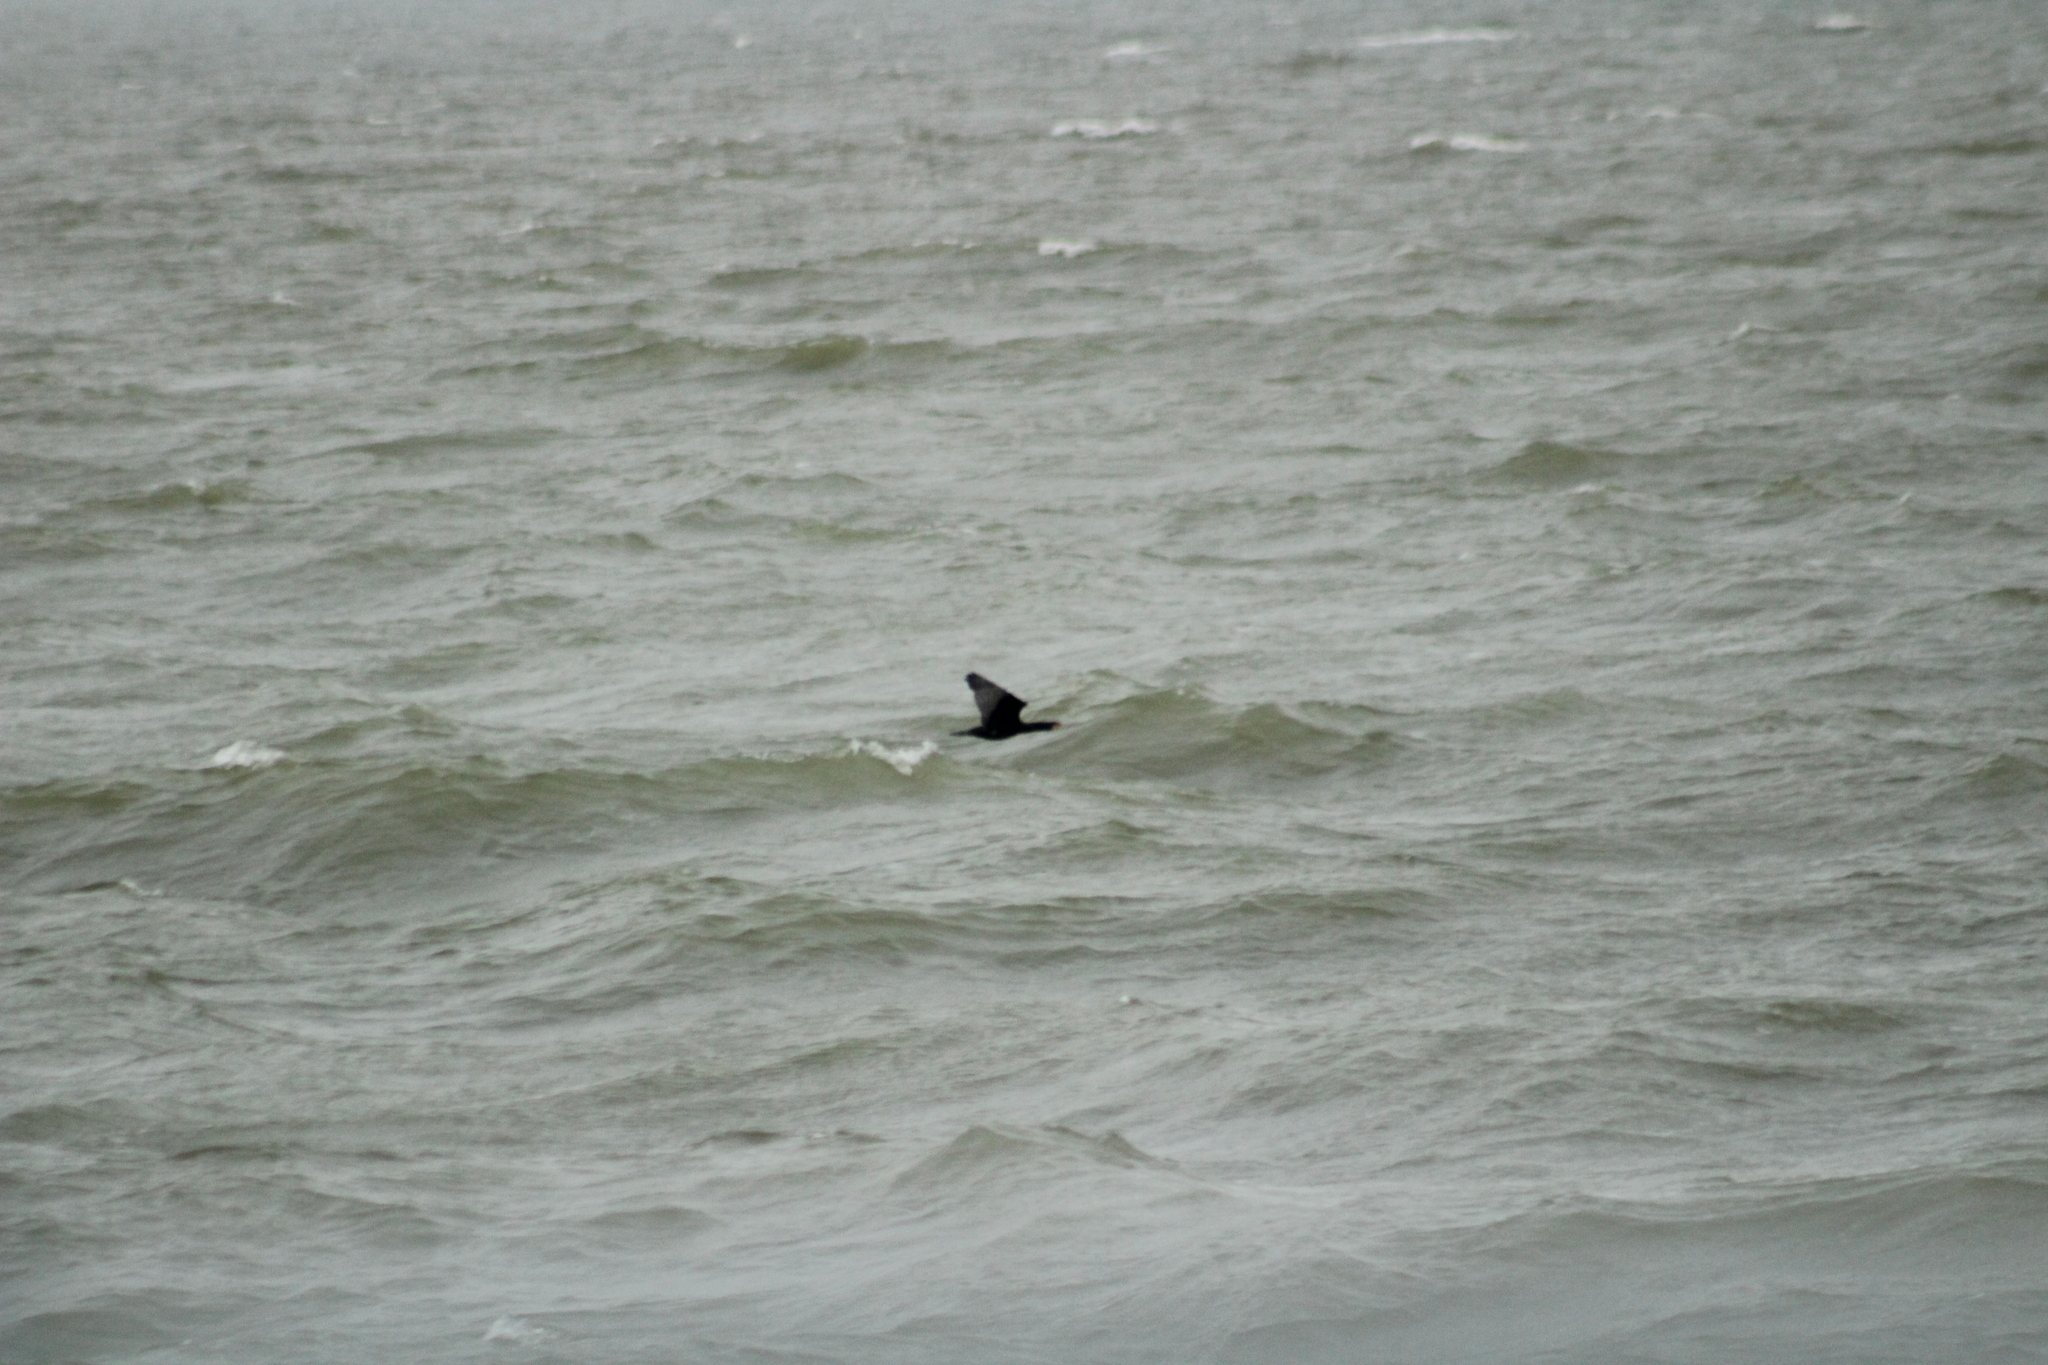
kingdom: Animalia
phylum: Chordata
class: Aves
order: Suliformes
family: Phalacrocoracidae
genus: Phalacrocorax
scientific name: Phalacrocorax carbo
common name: Great cormorant
